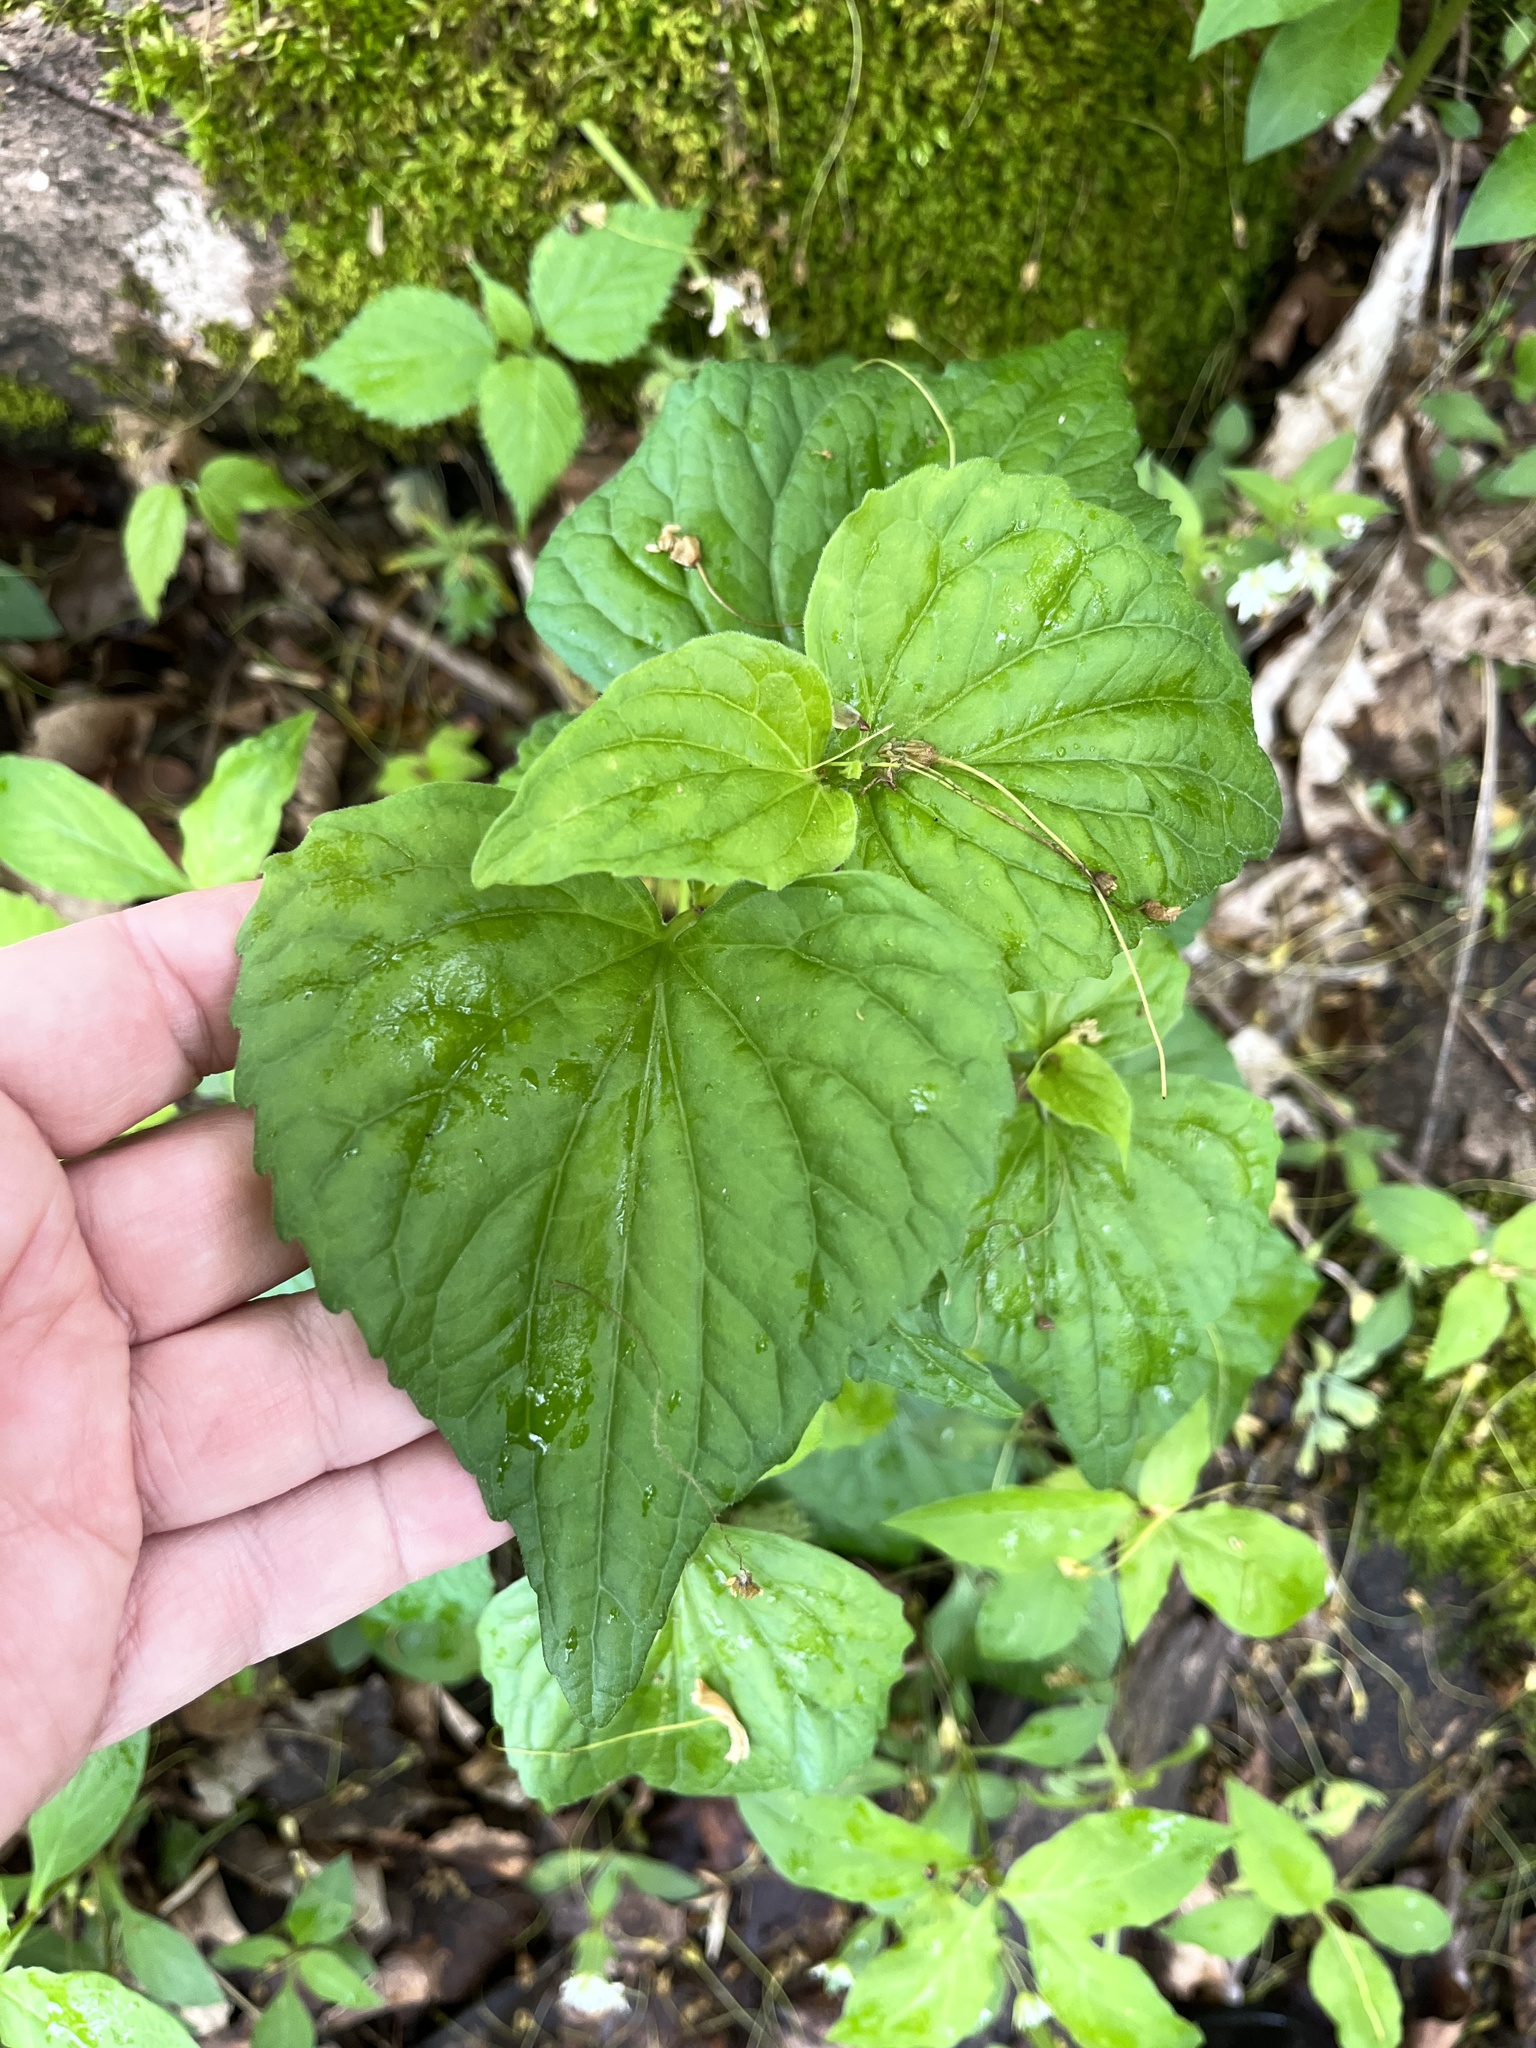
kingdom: Plantae
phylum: Tracheophyta
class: Magnoliopsida
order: Malpighiales
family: Violaceae
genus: Viola
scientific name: Viola eriocarpa
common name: Smooth yellow violet
